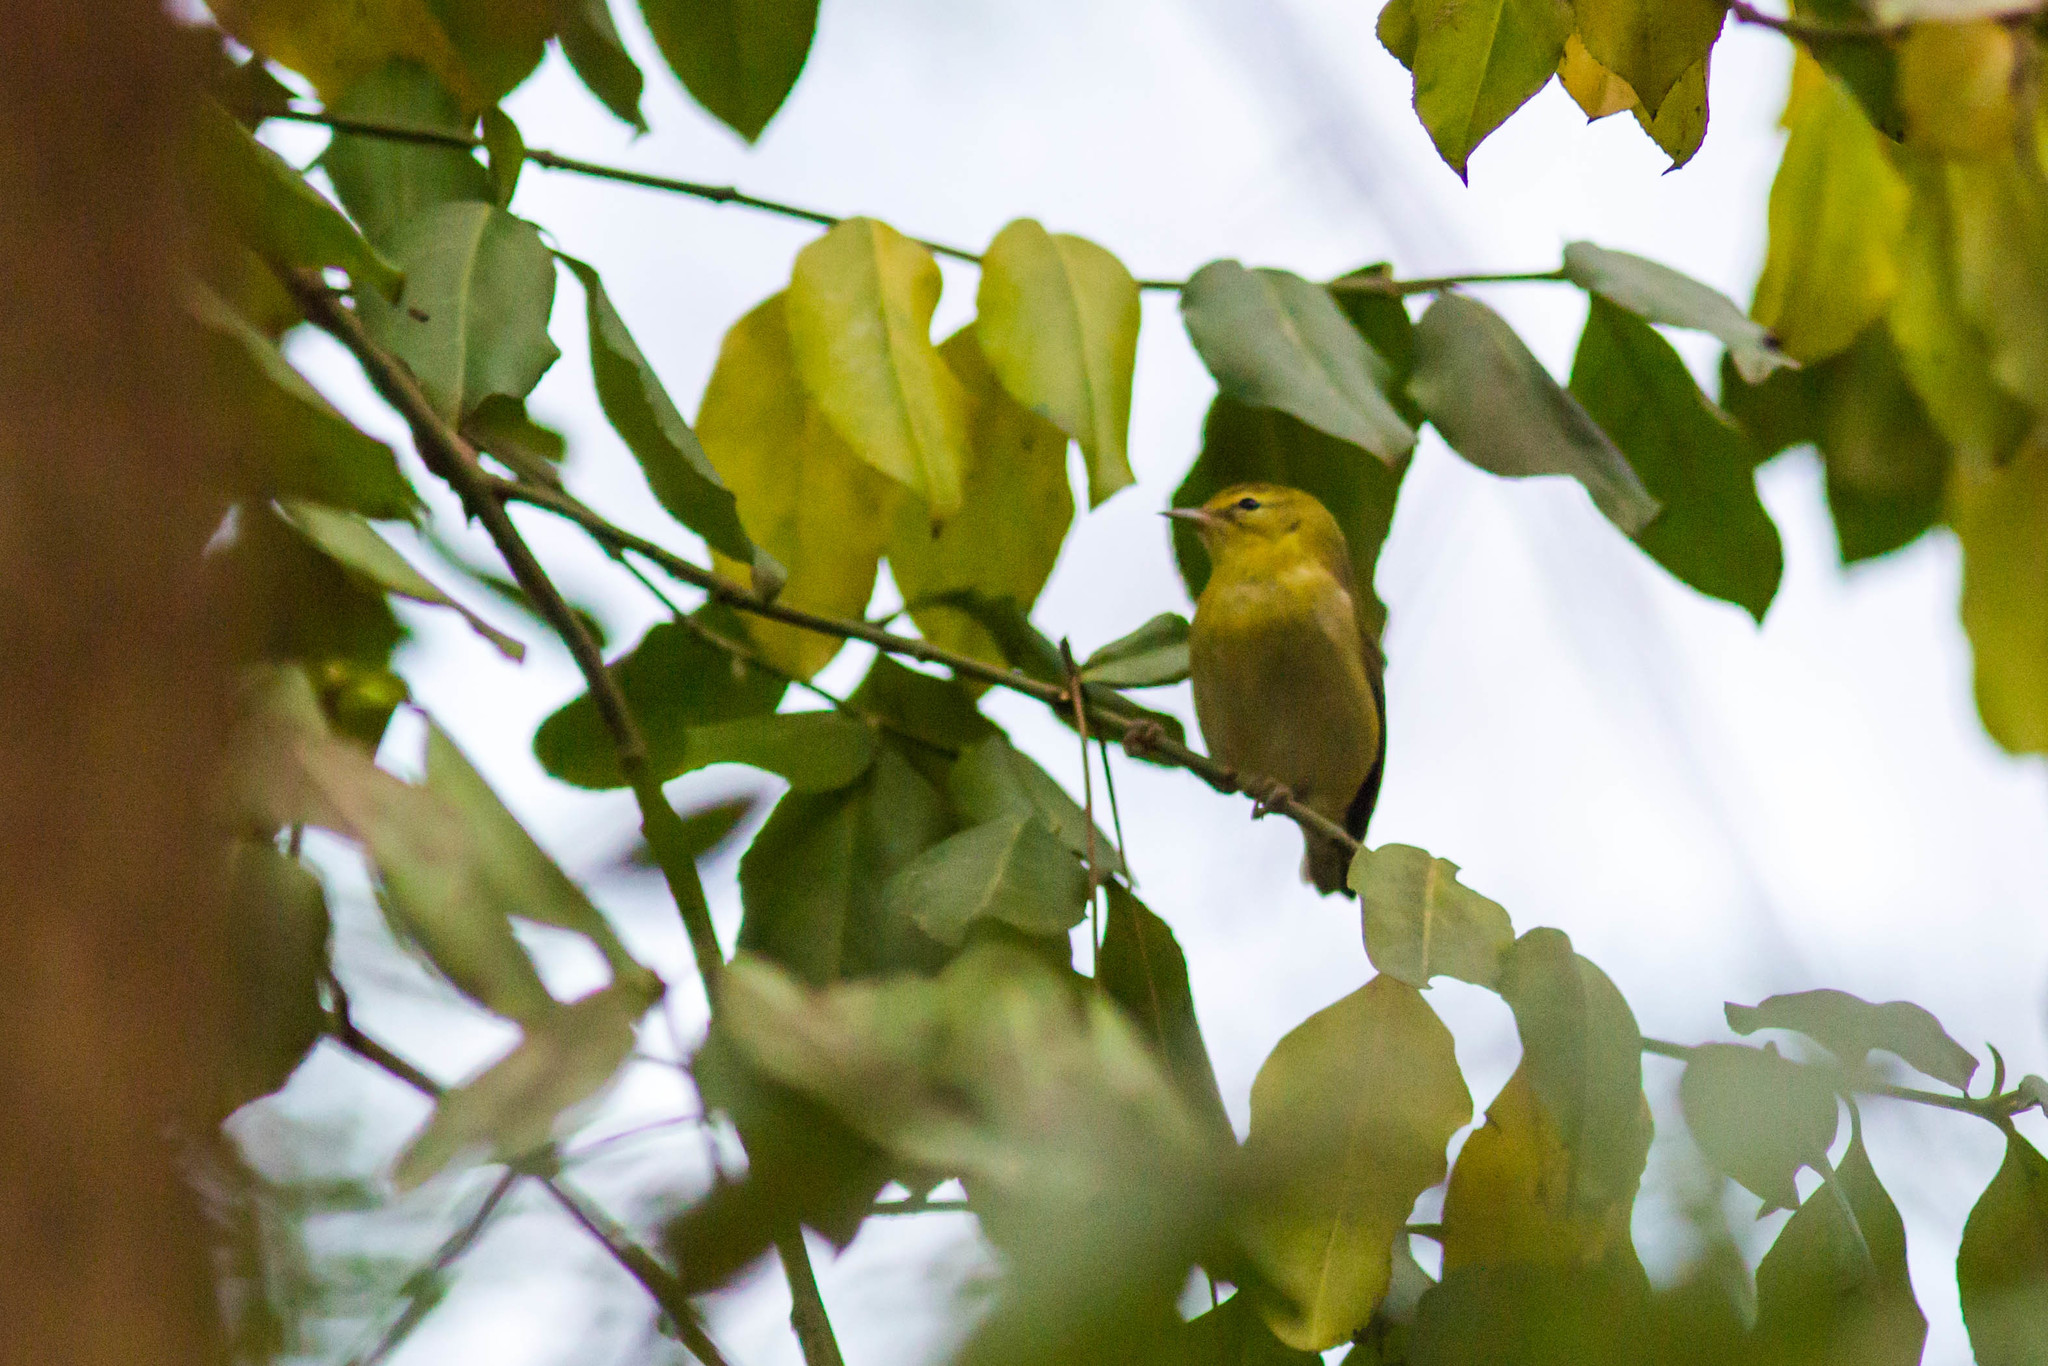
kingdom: Animalia
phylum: Chordata
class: Aves
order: Passeriformes
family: Parulidae
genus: Leiothlypis
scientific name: Leiothlypis peregrina
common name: Tennessee warbler
